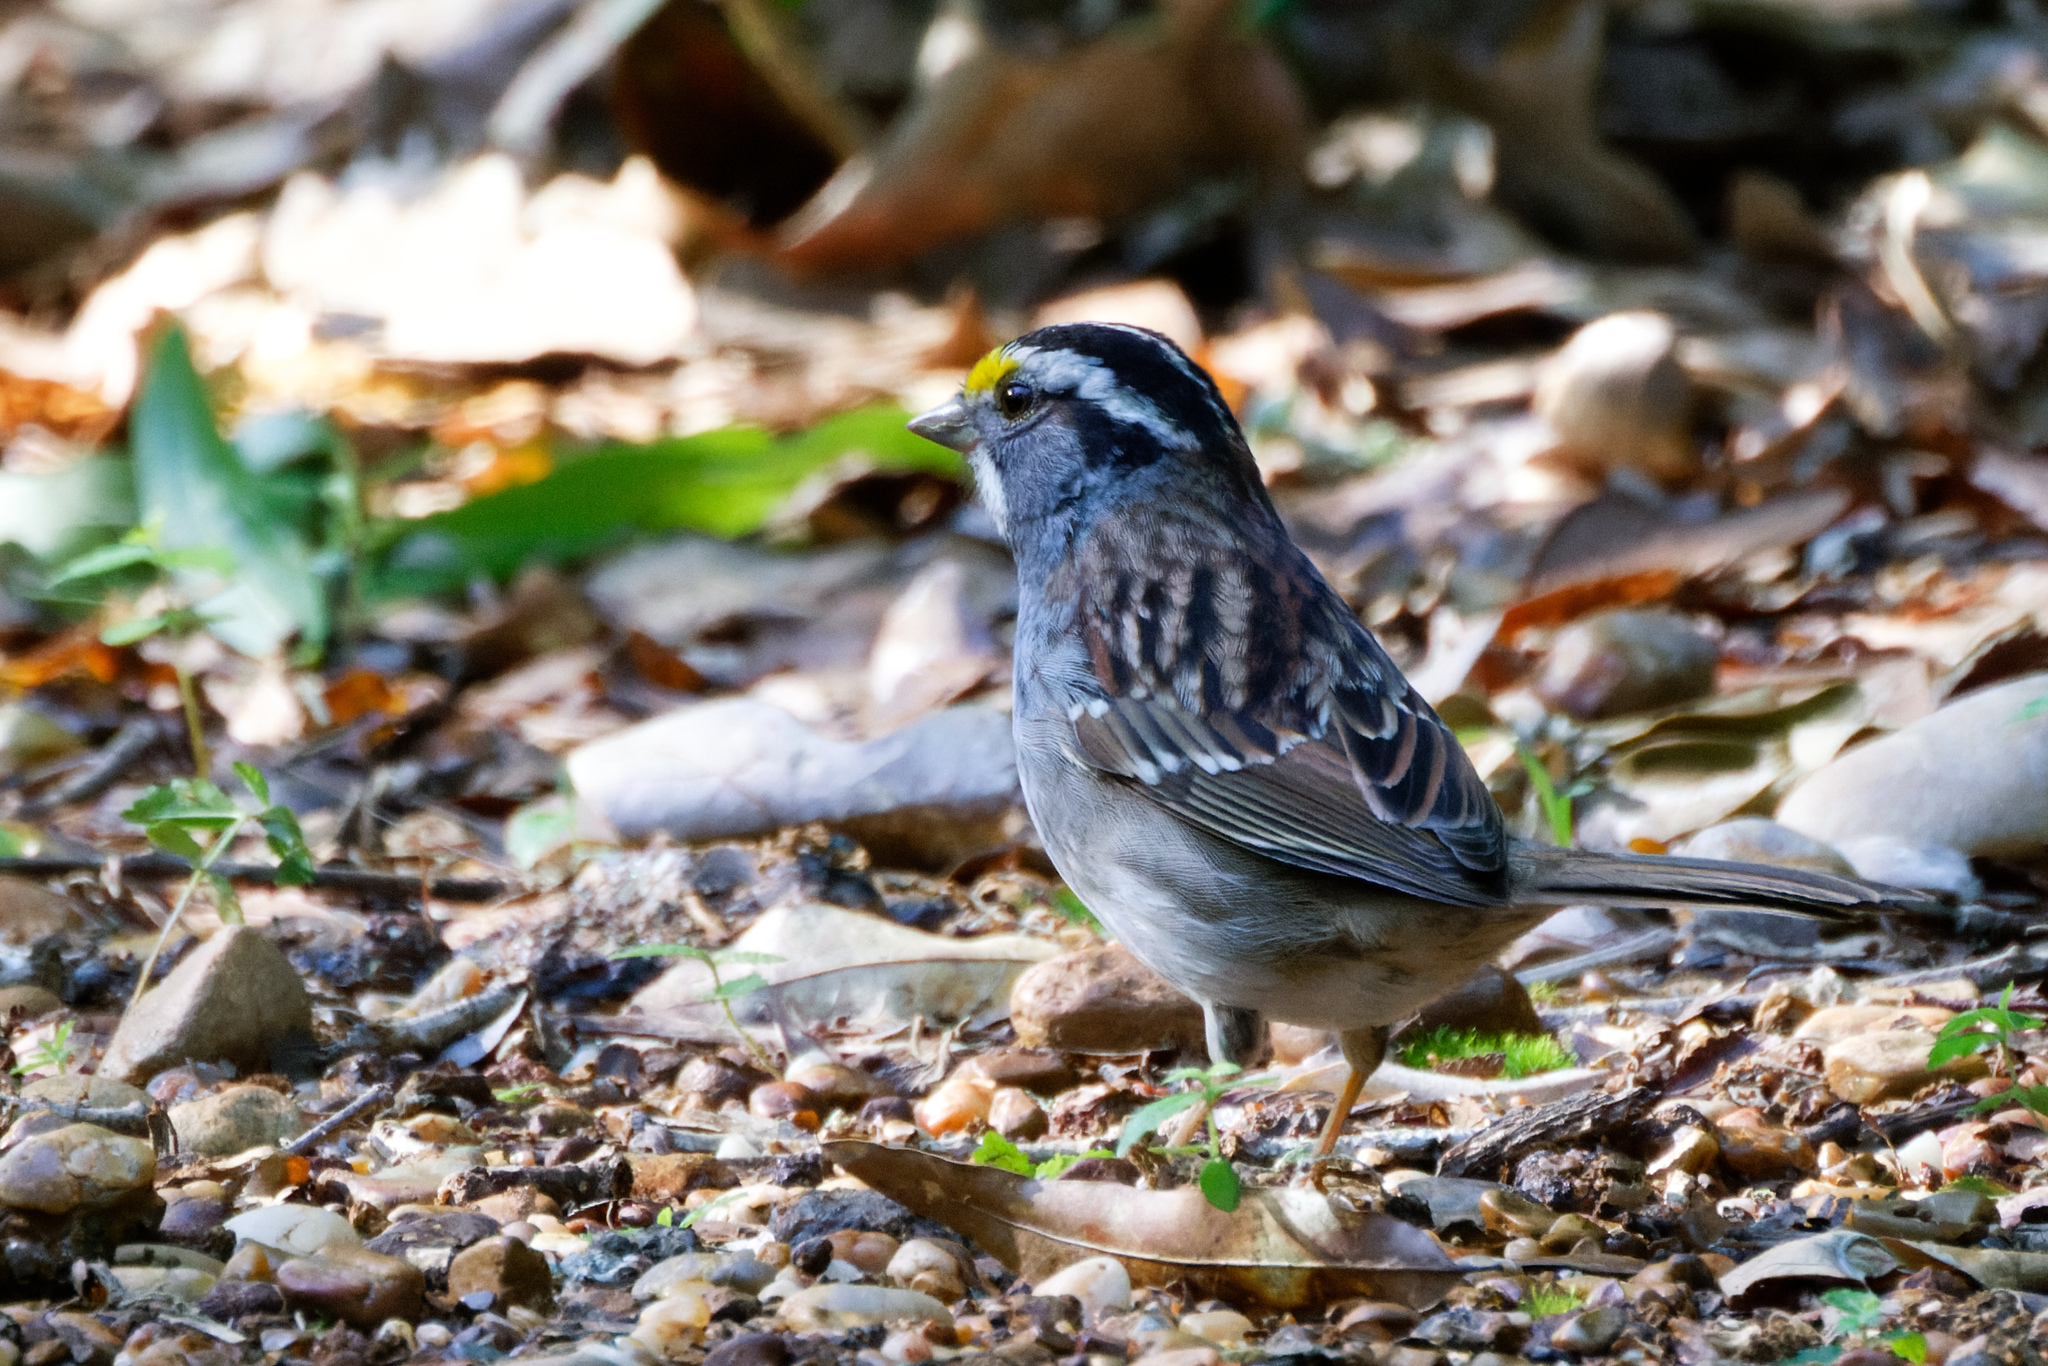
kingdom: Animalia
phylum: Chordata
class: Aves
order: Passeriformes
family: Passerellidae
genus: Zonotrichia
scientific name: Zonotrichia albicollis
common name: White-throated sparrow
